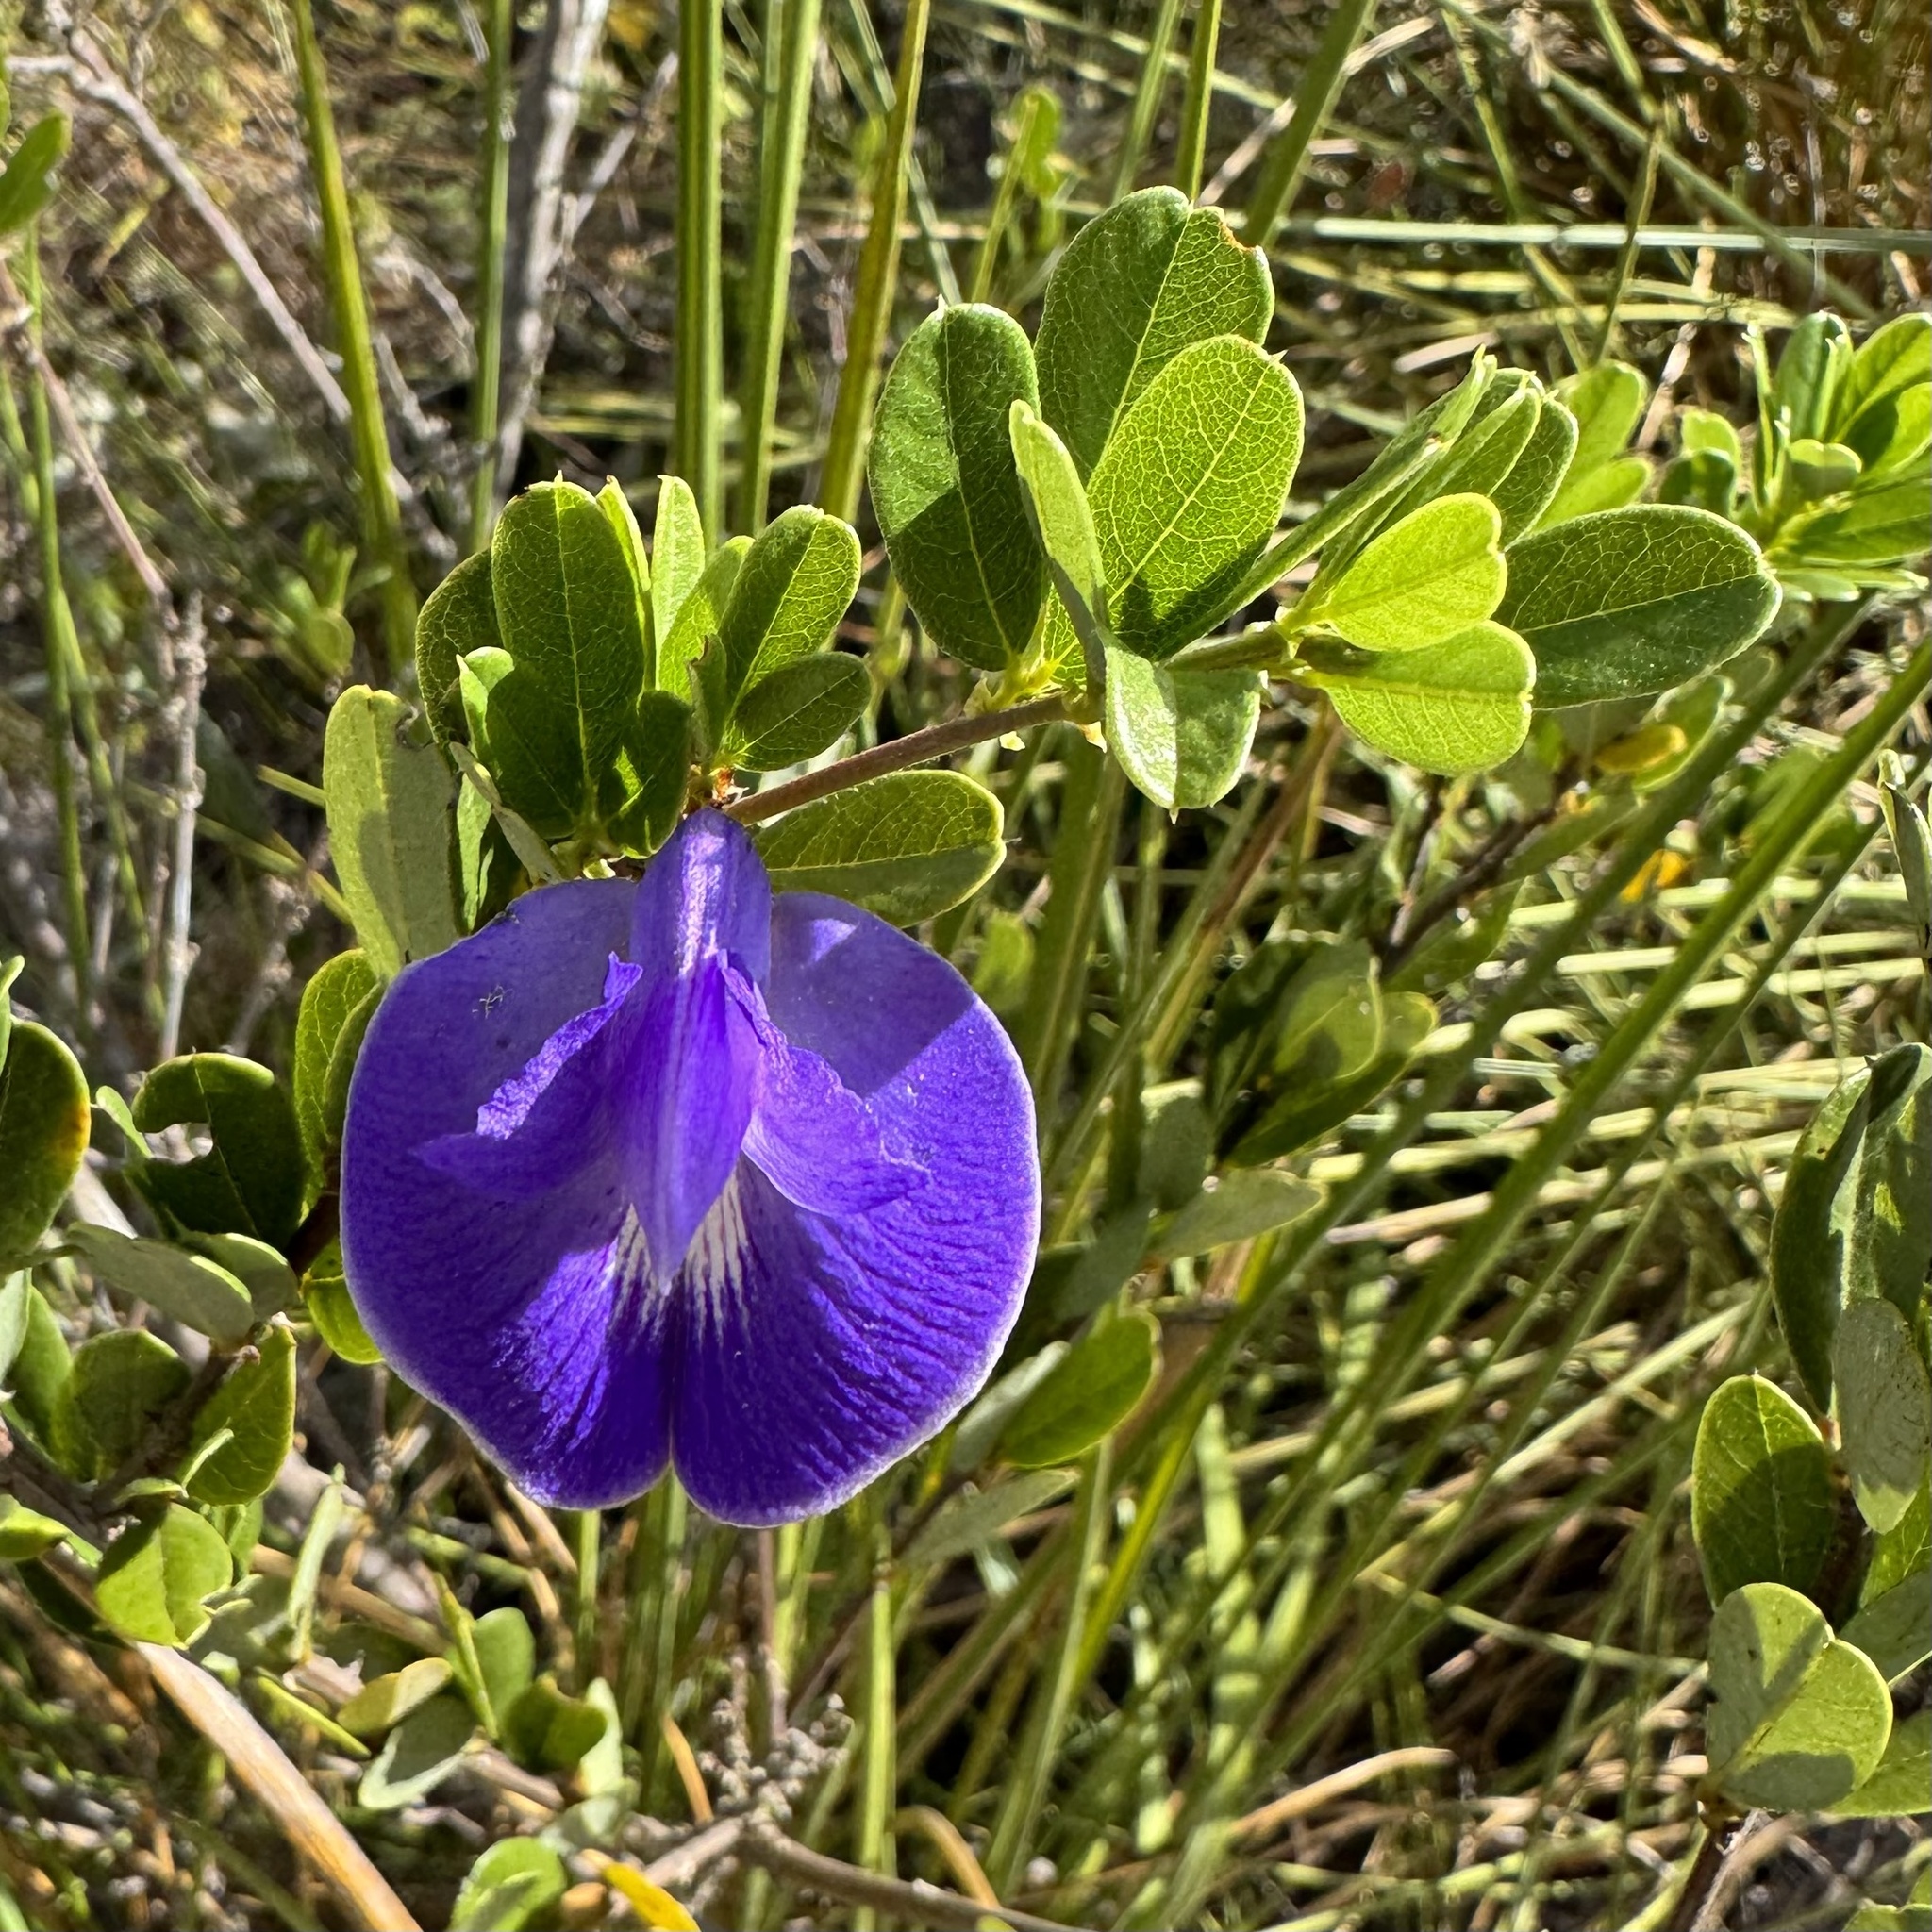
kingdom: Plantae
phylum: Tracheophyta
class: Magnoliopsida
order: Fabales
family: Fabaceae
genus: Periandra
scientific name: Periandra mediterranea
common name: Brazilian licorice
